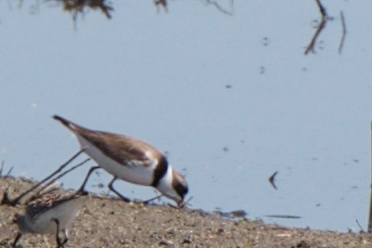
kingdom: Animalia
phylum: Chordata
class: Aves
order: Charadriiformes
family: Charadriidae
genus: Charadrius
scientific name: Charadrius semipalmatus
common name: Semipalmated plover
